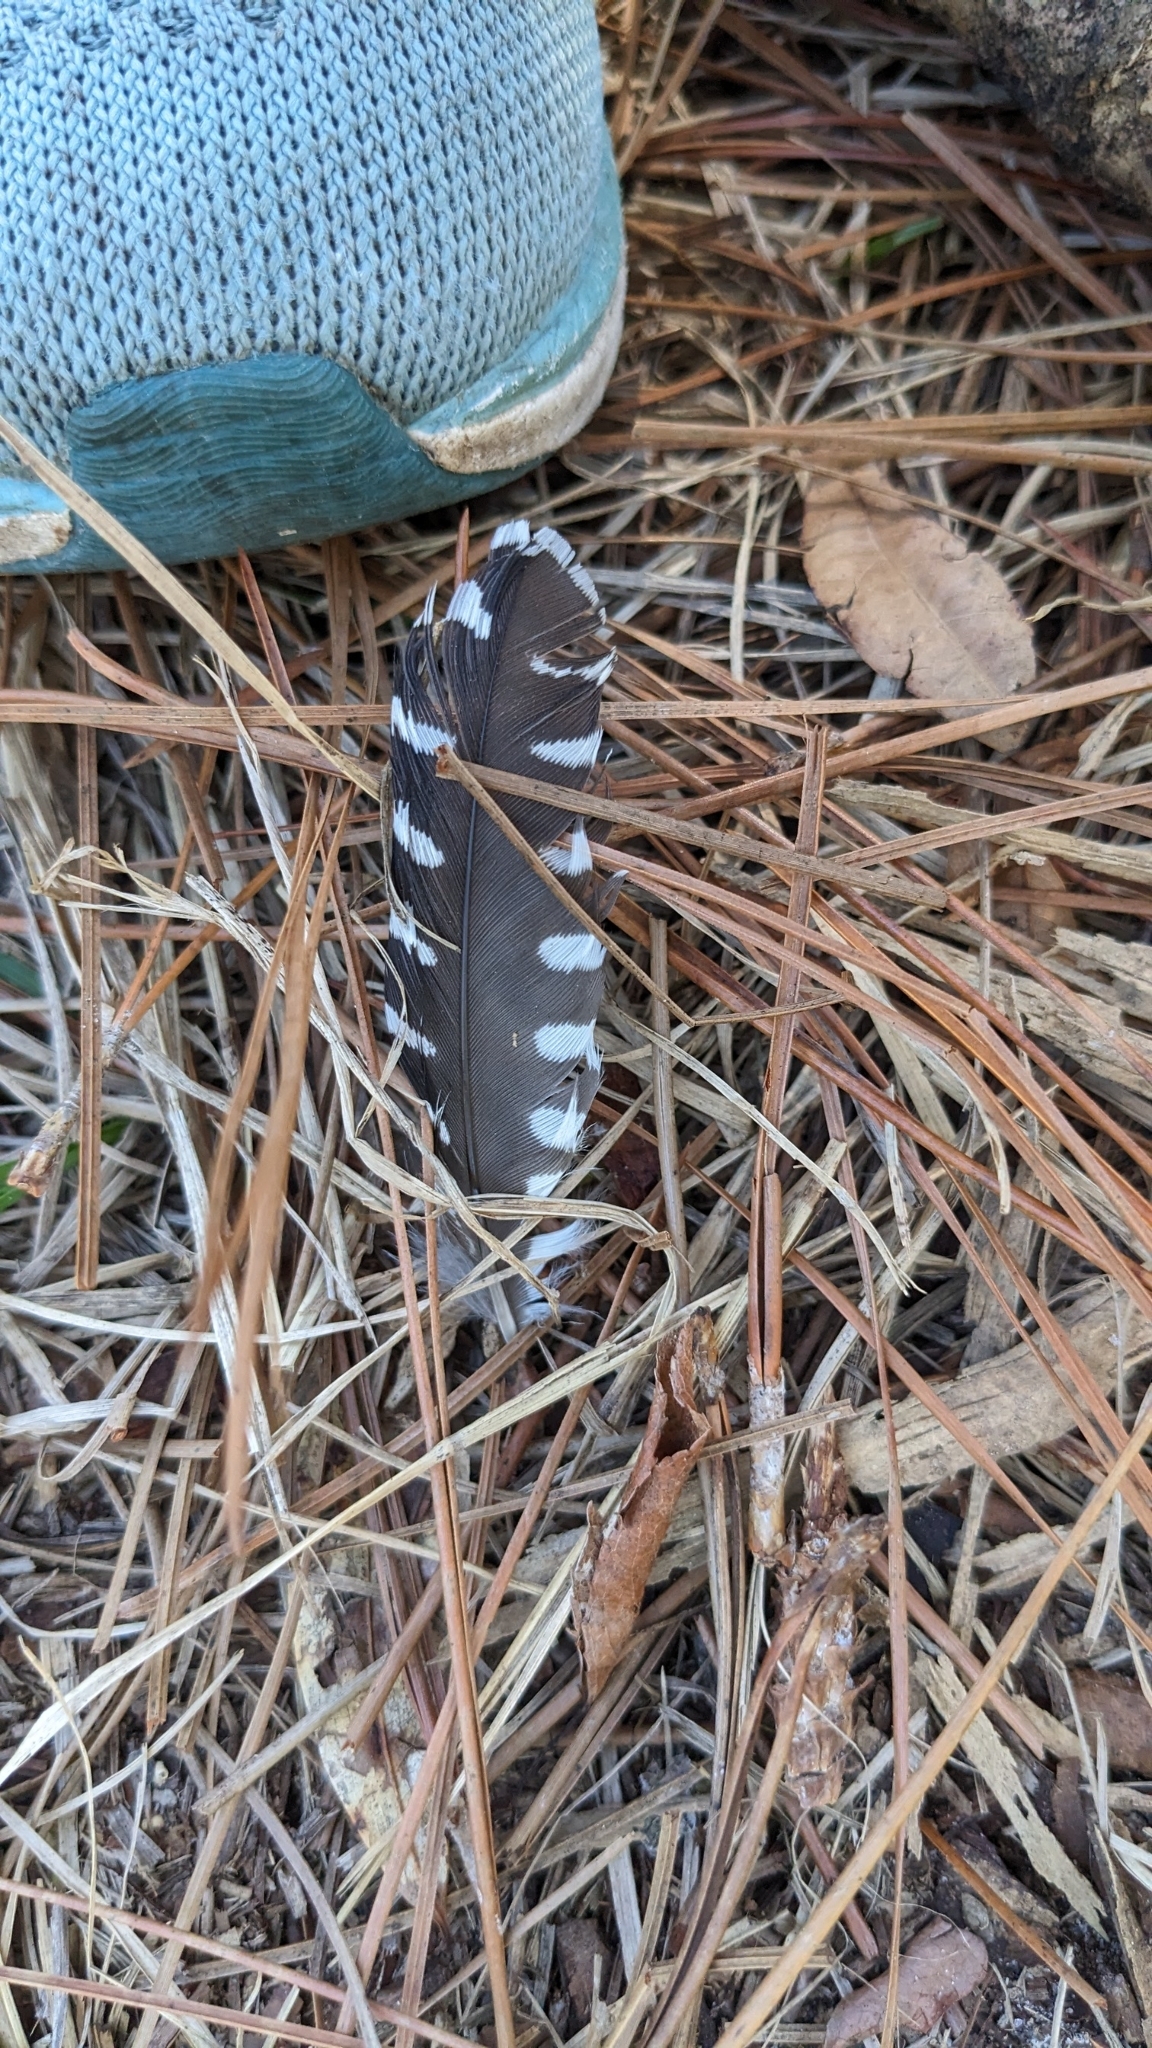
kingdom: Animalia
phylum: Chordata
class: Aves
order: Piciformes
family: Picidae
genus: Melanerpes
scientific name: Melanerpes carolinus
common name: Red-bellied woodpecker
